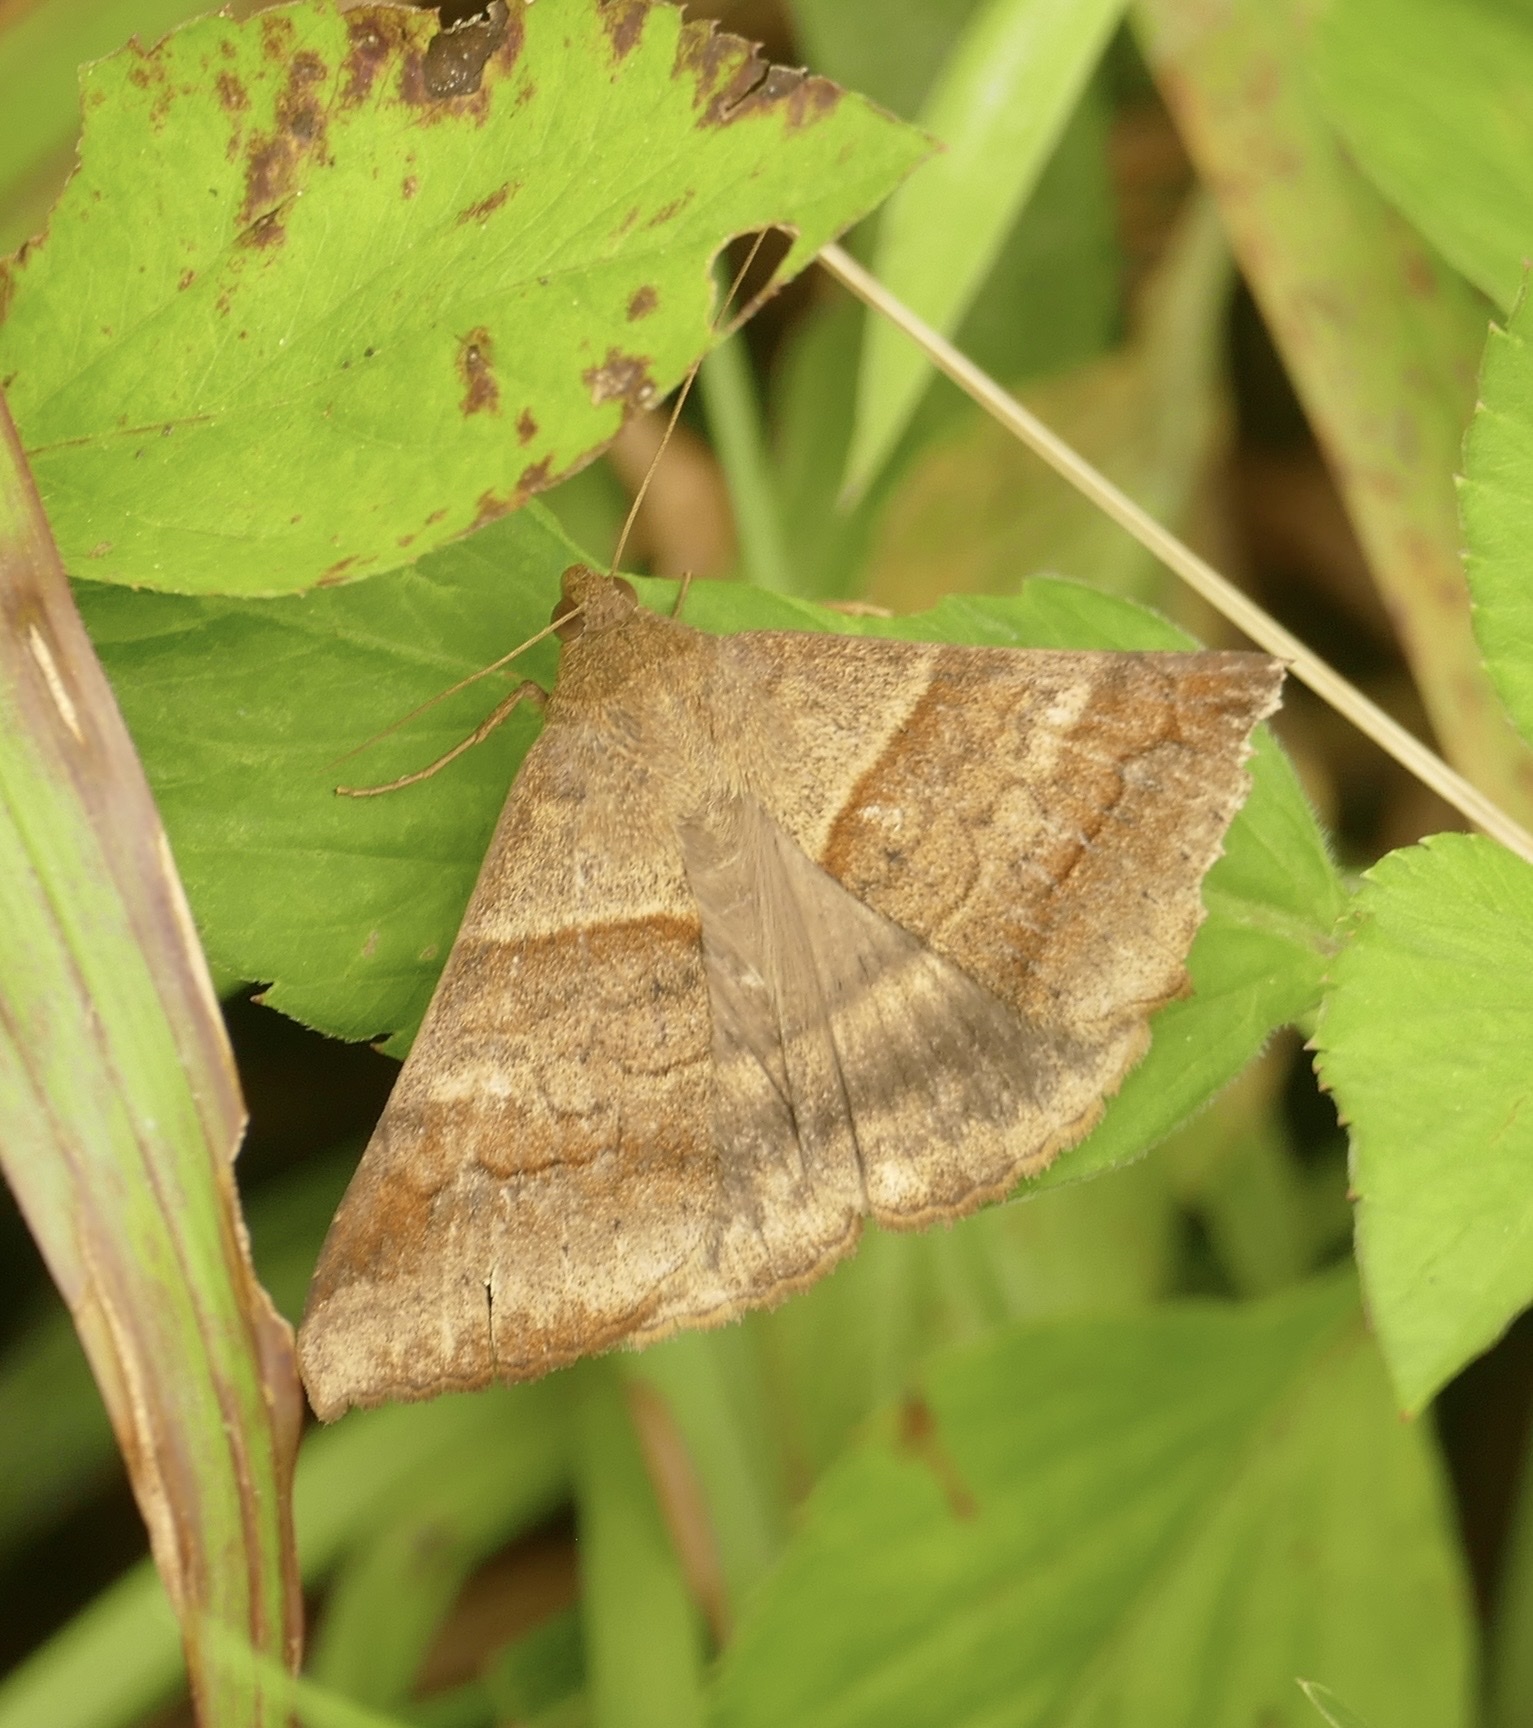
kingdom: Animalia
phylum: Arthropoda
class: Insecta
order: Lepidoptera
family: Erebidae
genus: Mocis
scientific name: Mocis trifasciata
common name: Triple-barred
